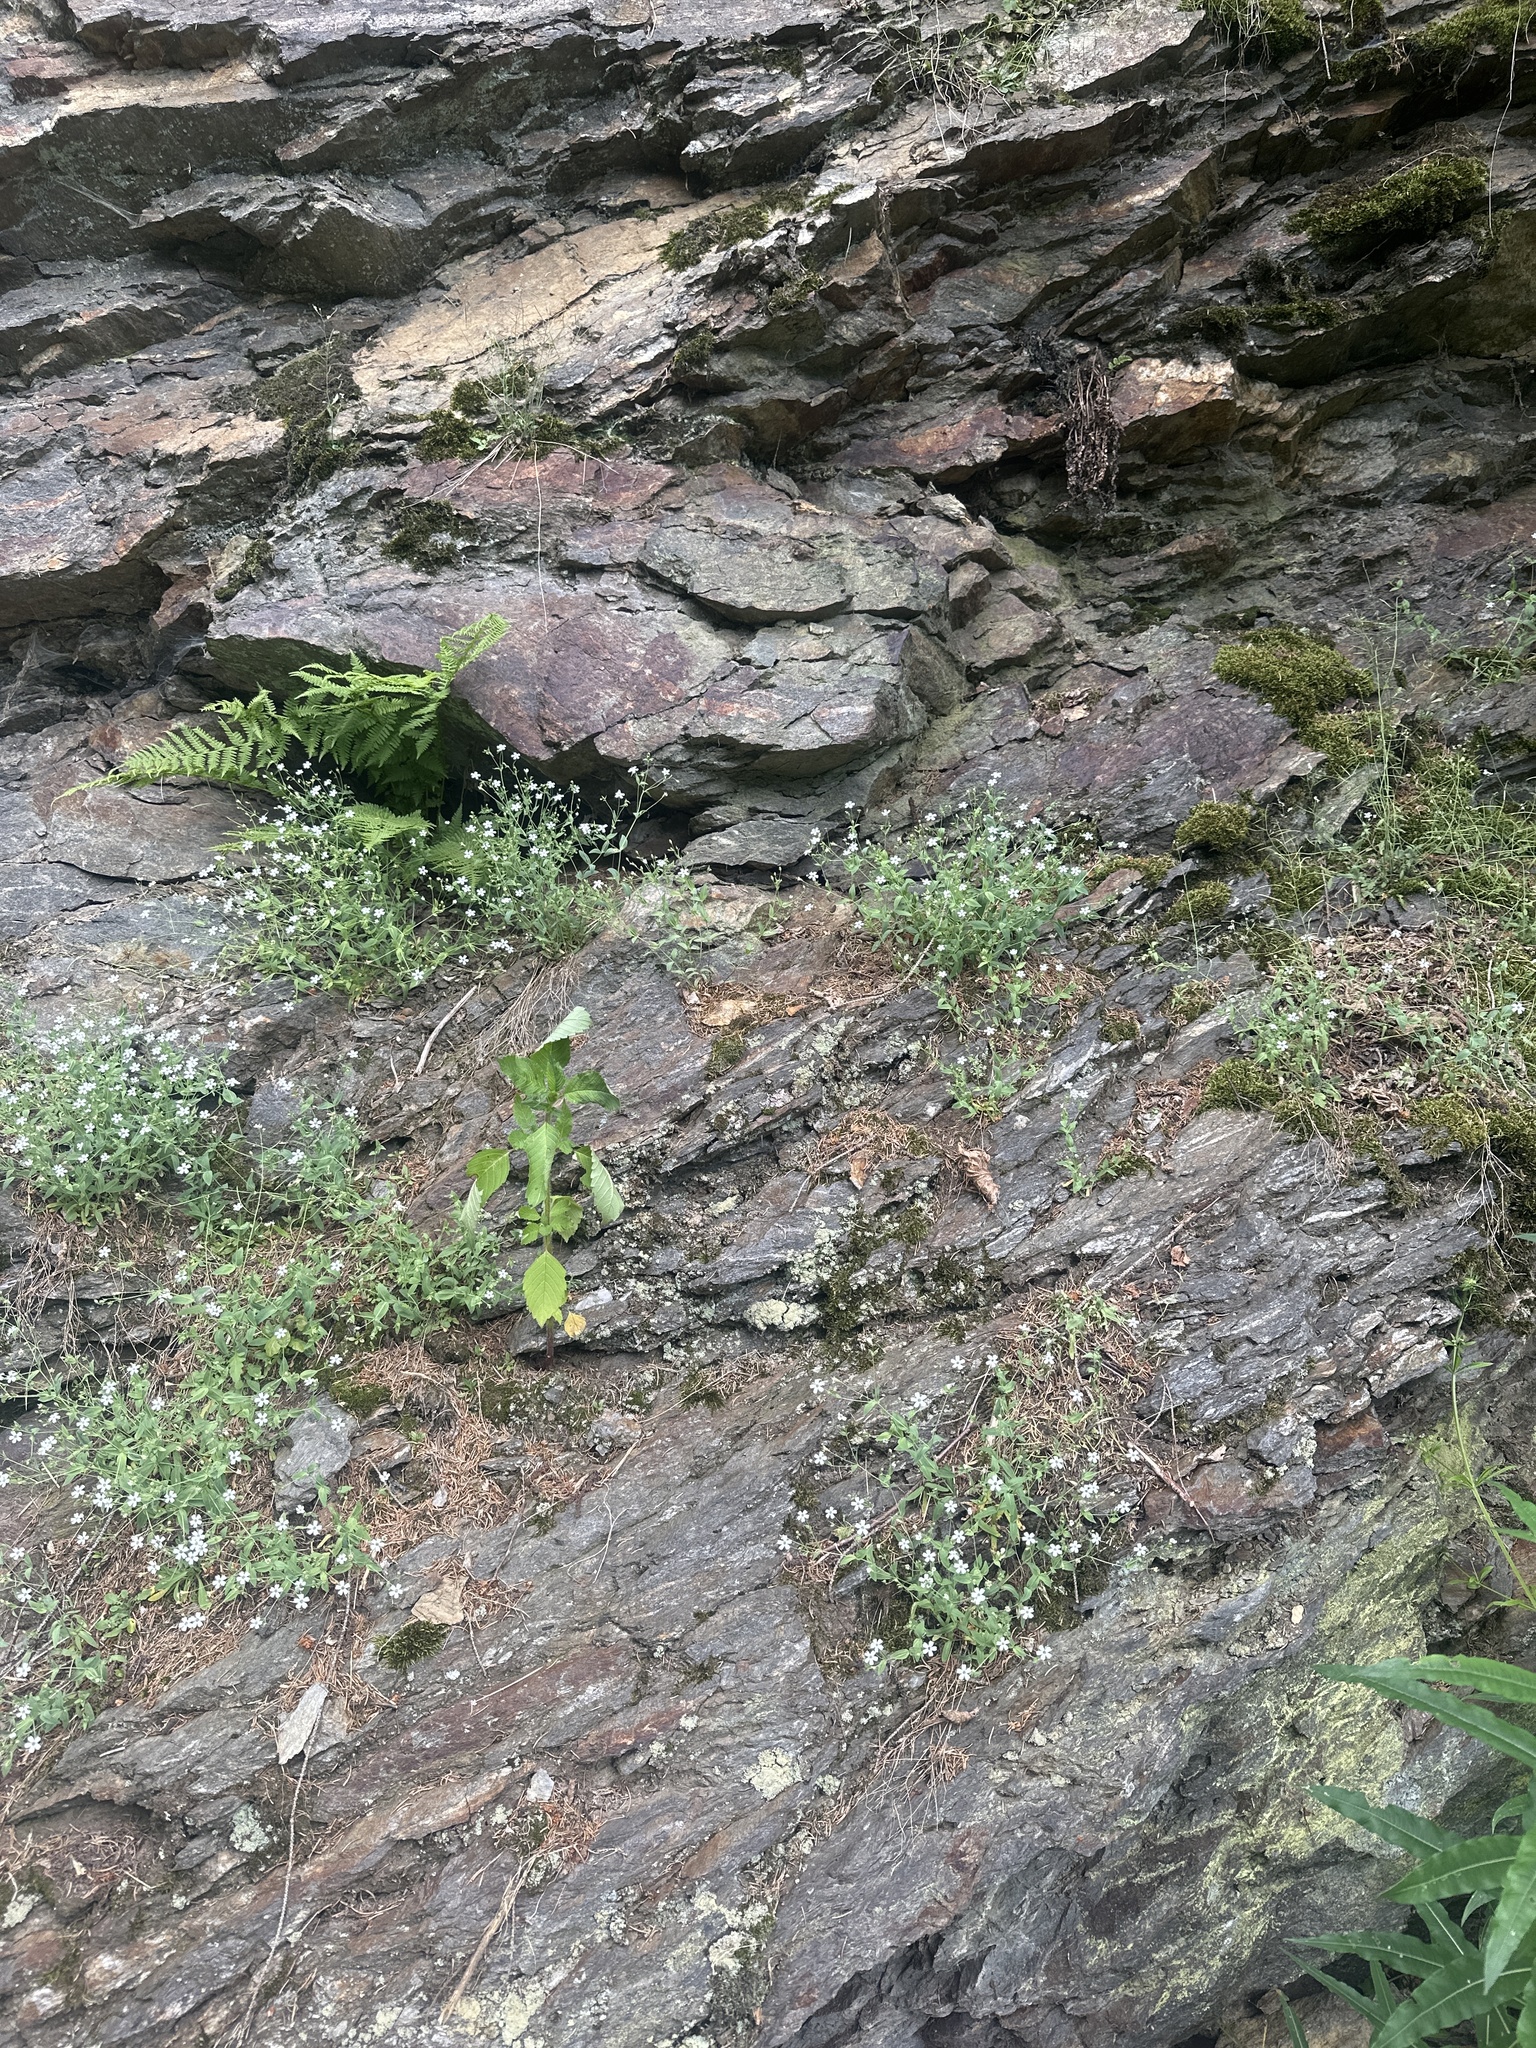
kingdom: Plantae
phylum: Tracheophyta
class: Magnoliopsida
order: Caryophyllales
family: Caryophyllaceae
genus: Atocion
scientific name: Atocion rupestre
